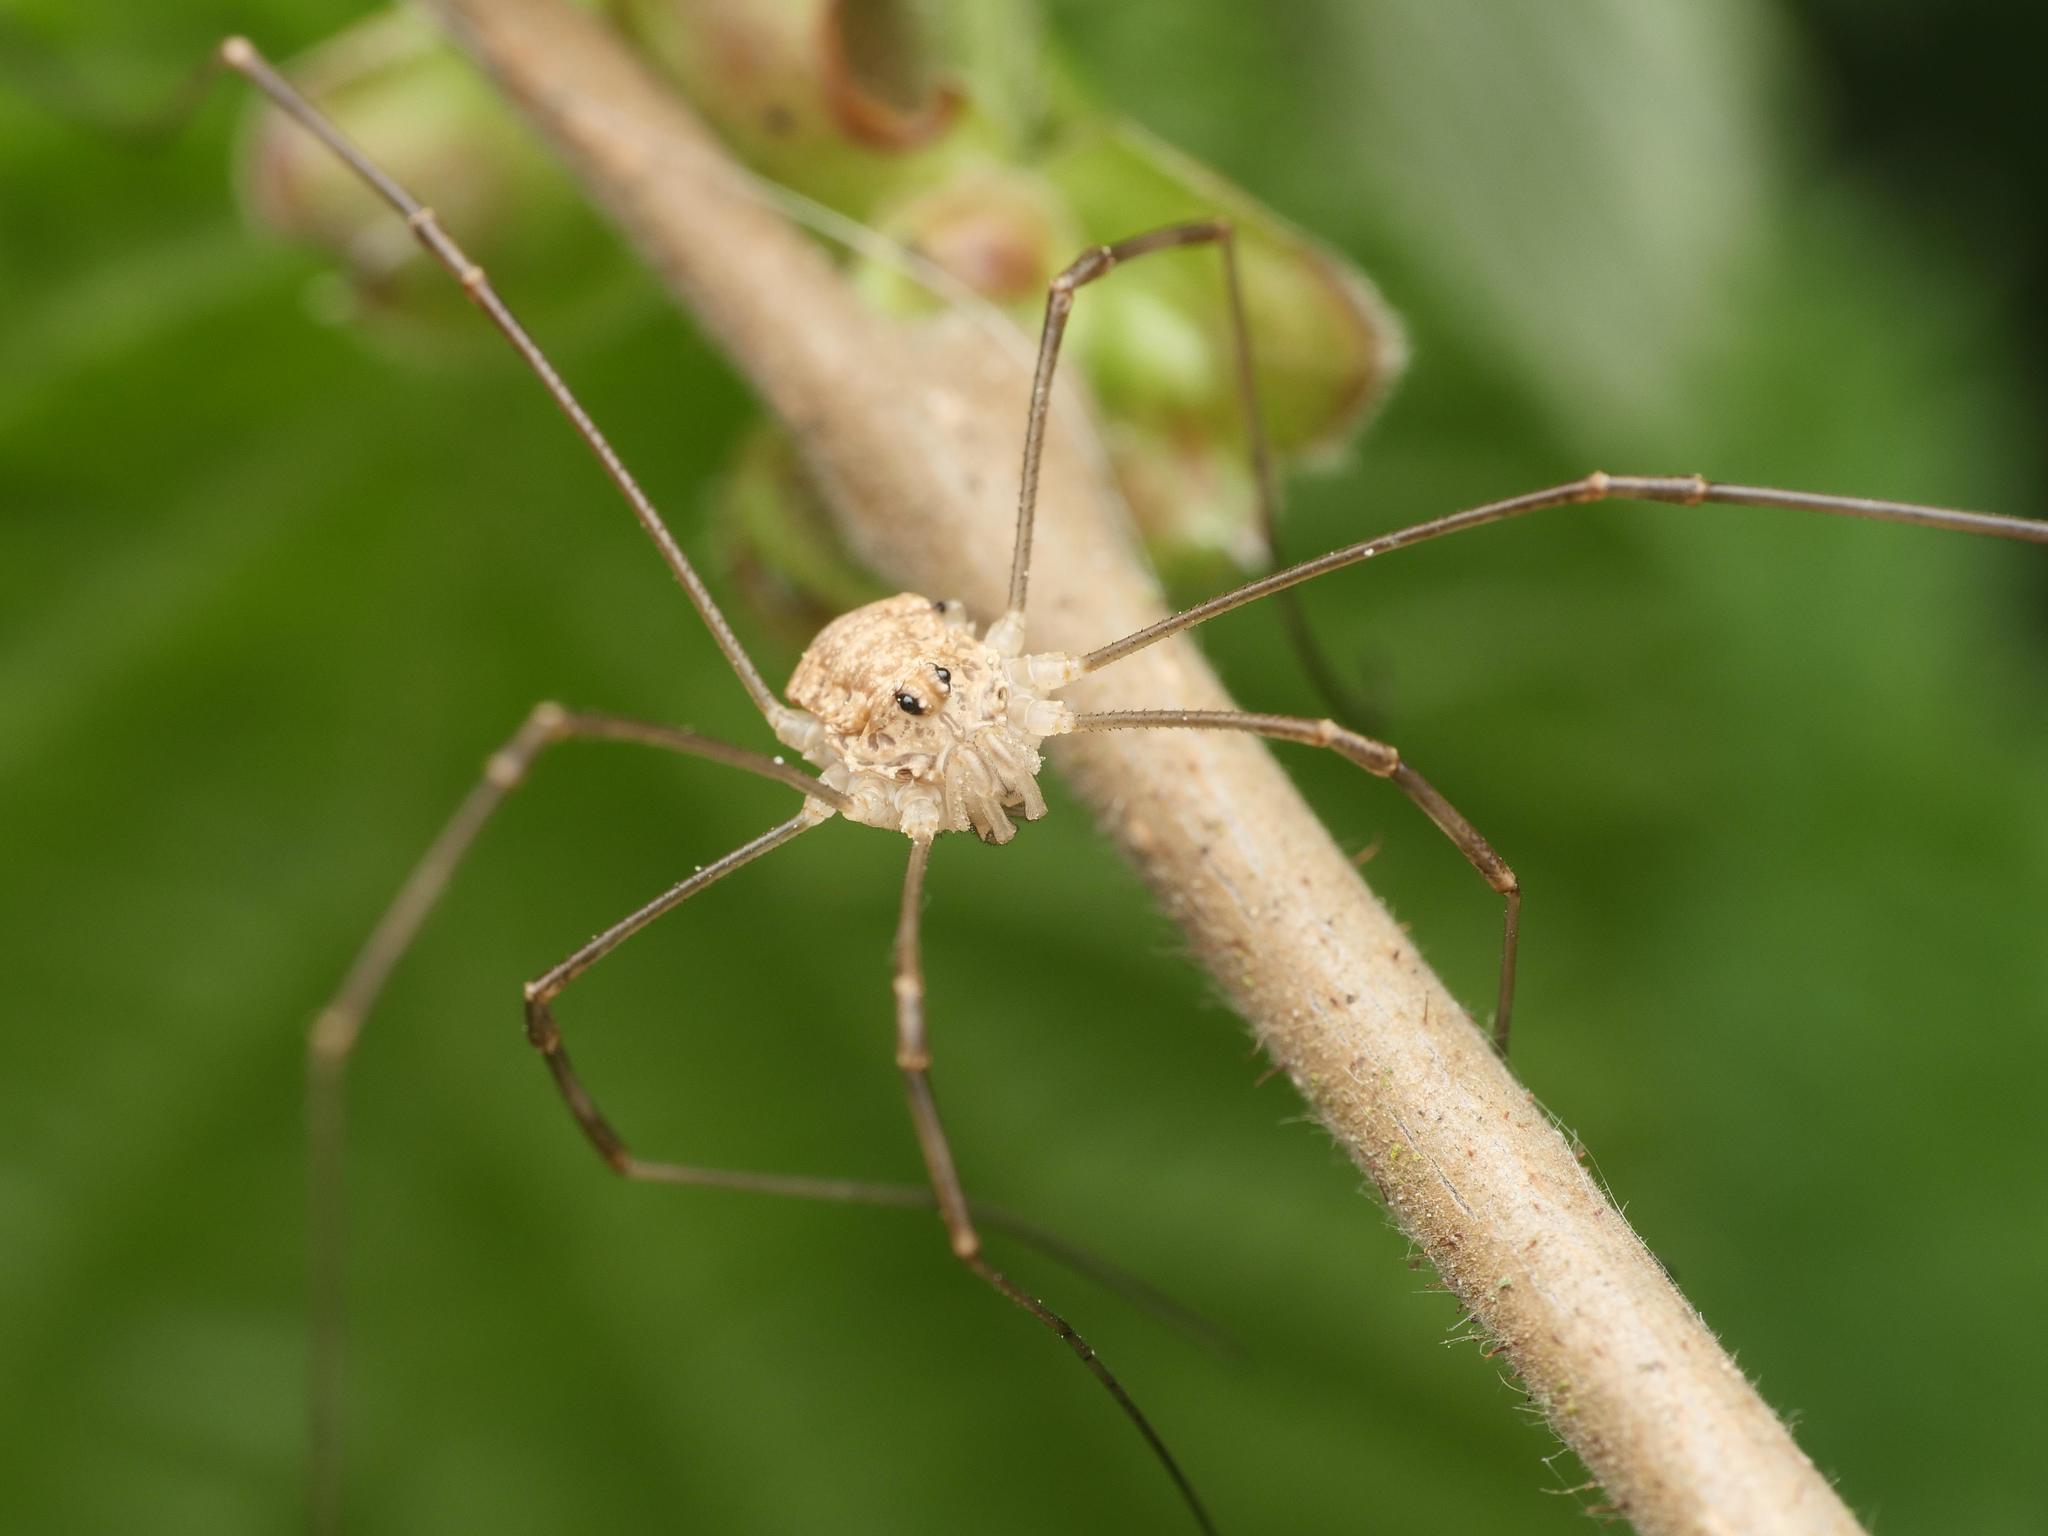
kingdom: Animalia
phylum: Arthropoda
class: Arachnida
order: Opiliones
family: Phalangiidae
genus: Rilaena
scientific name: Rilaena triangularis
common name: Spring harvestman
